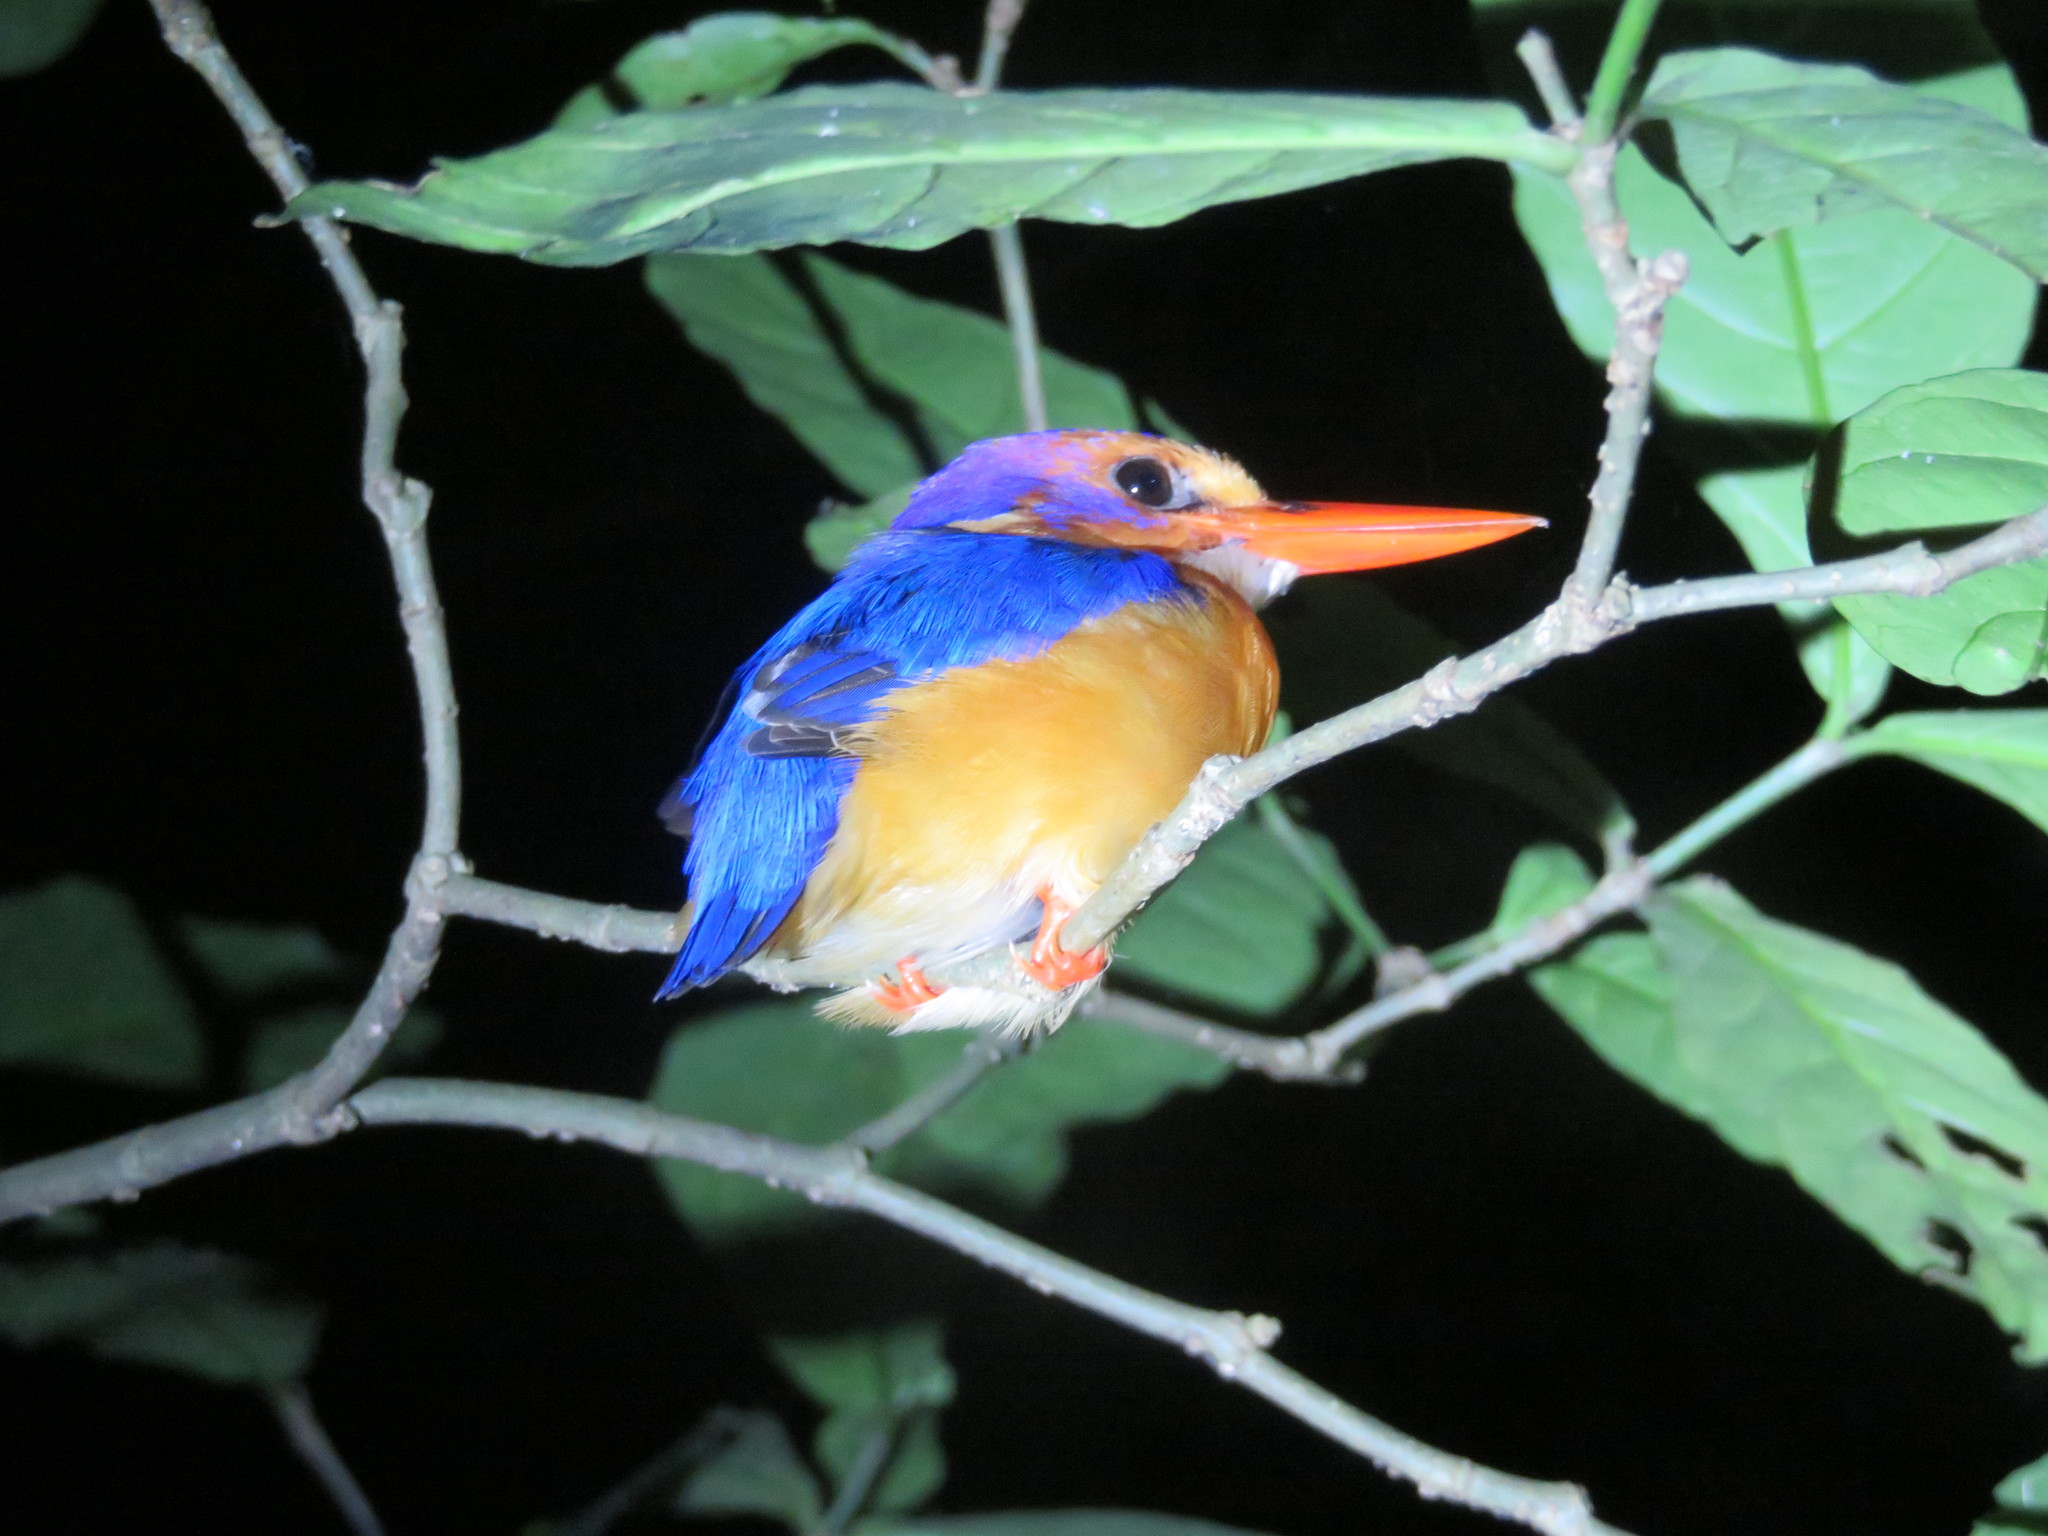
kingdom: Animalia
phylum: Chordata
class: Aves
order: Coraciiformes
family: Alcedinidae
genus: Ispidina
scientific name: Ispidina picta
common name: African pygmy-kingfisher
